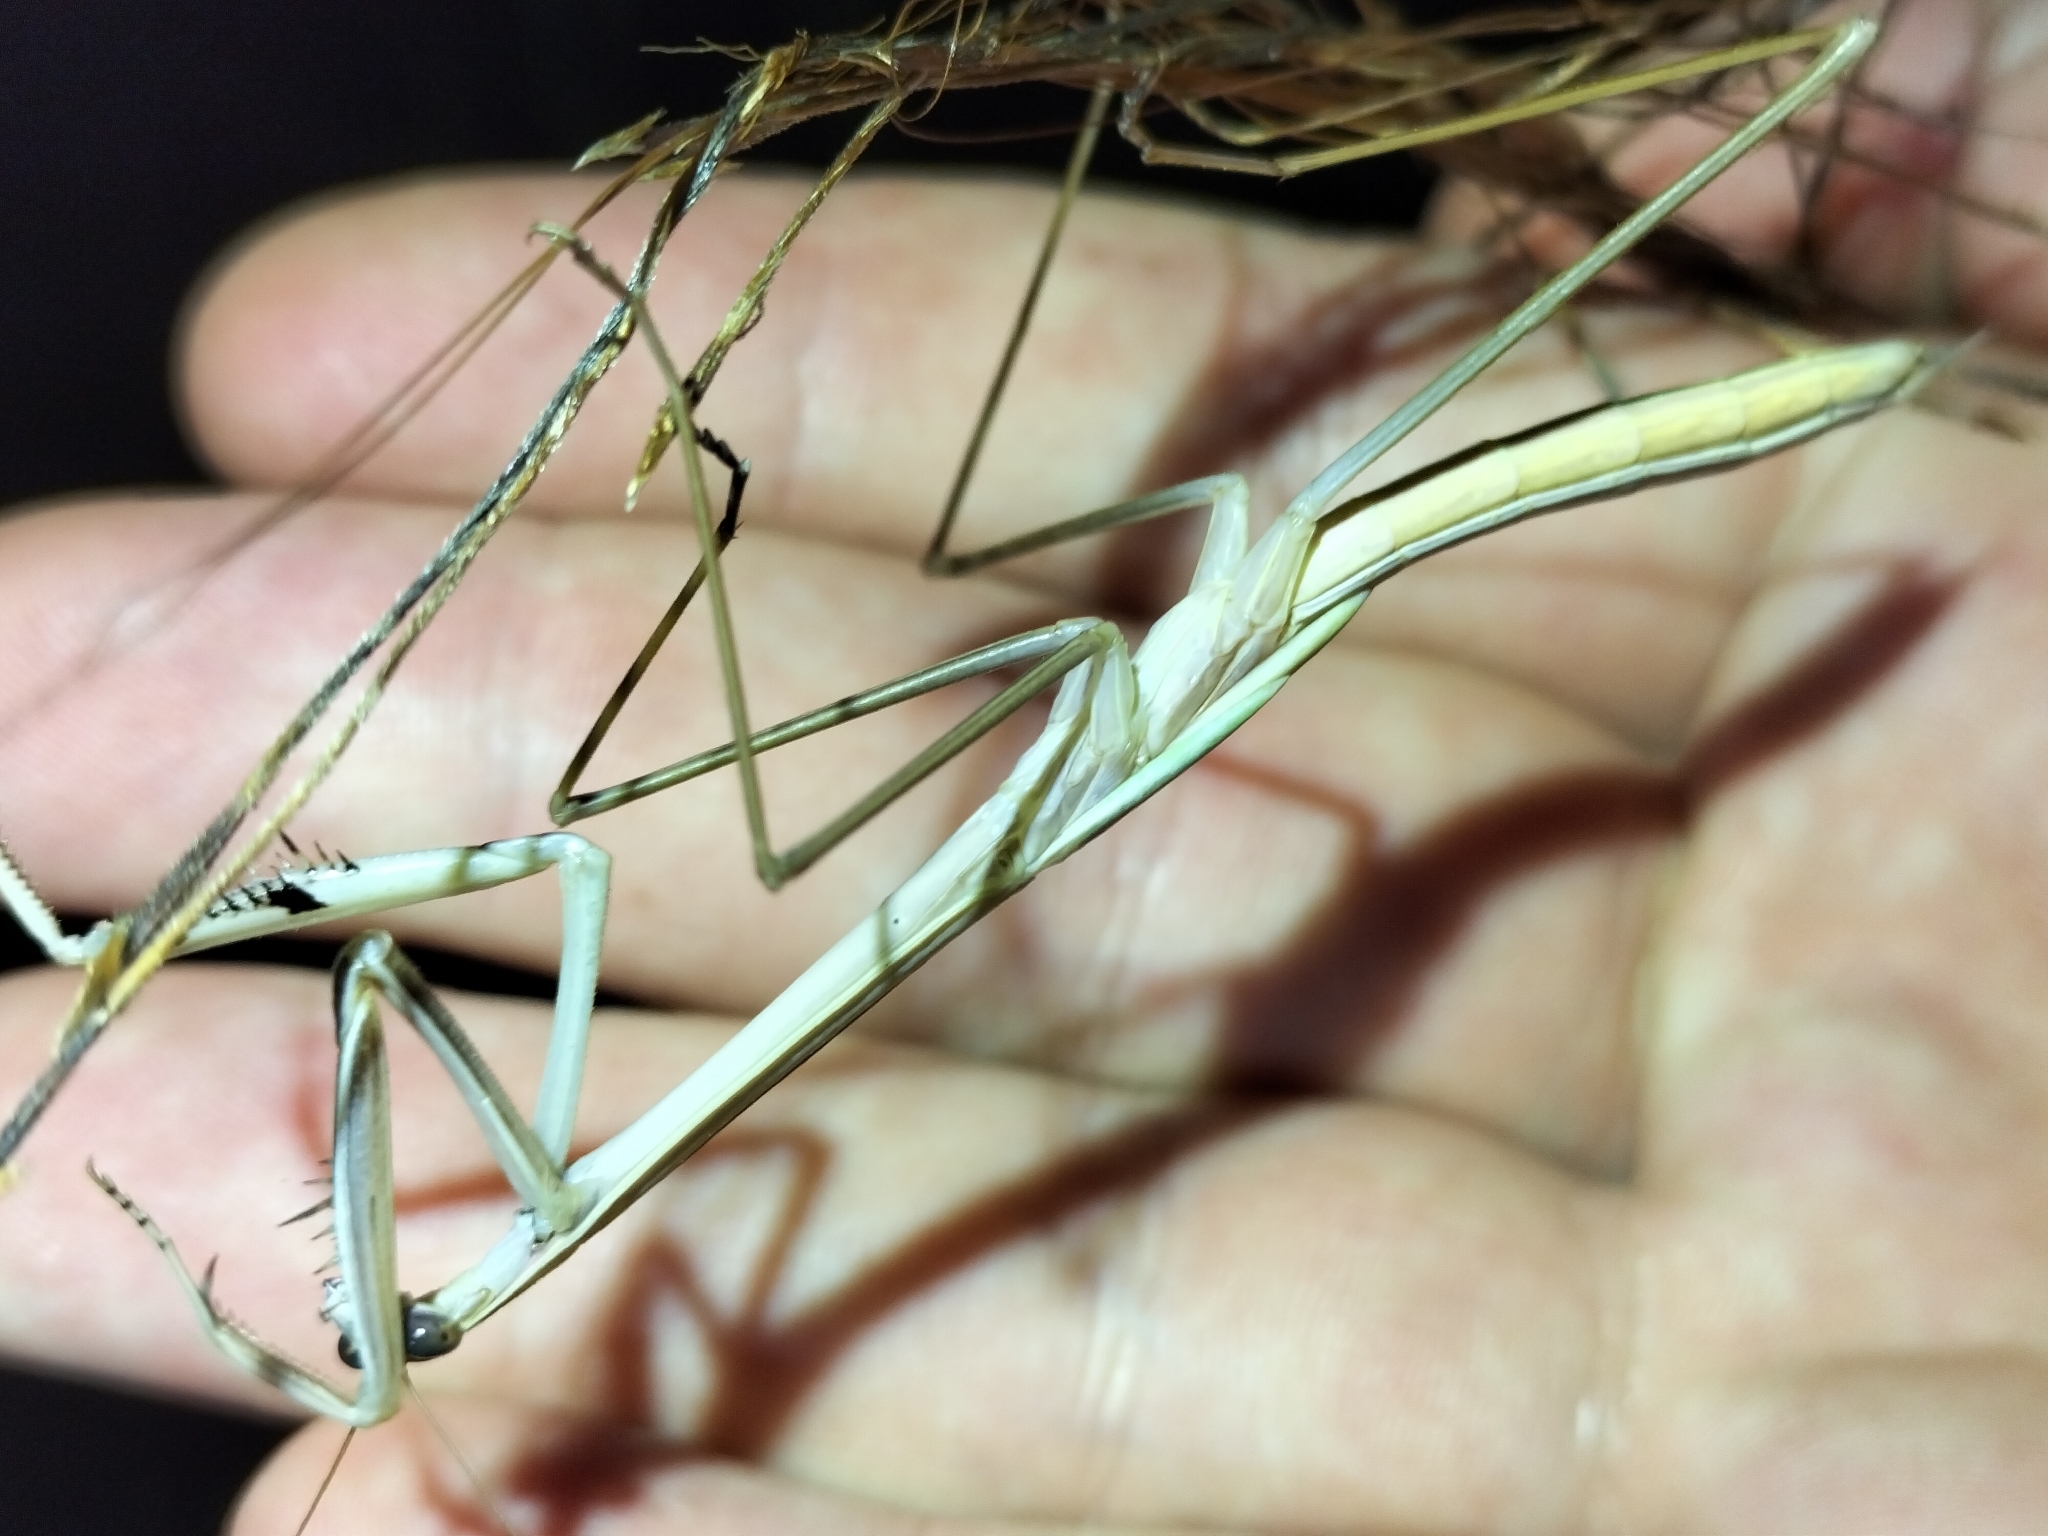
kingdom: Animalia
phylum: Arthropoda
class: Insecta
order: Mantodea
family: Mantidae
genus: Tenodera
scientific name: Tenodera
